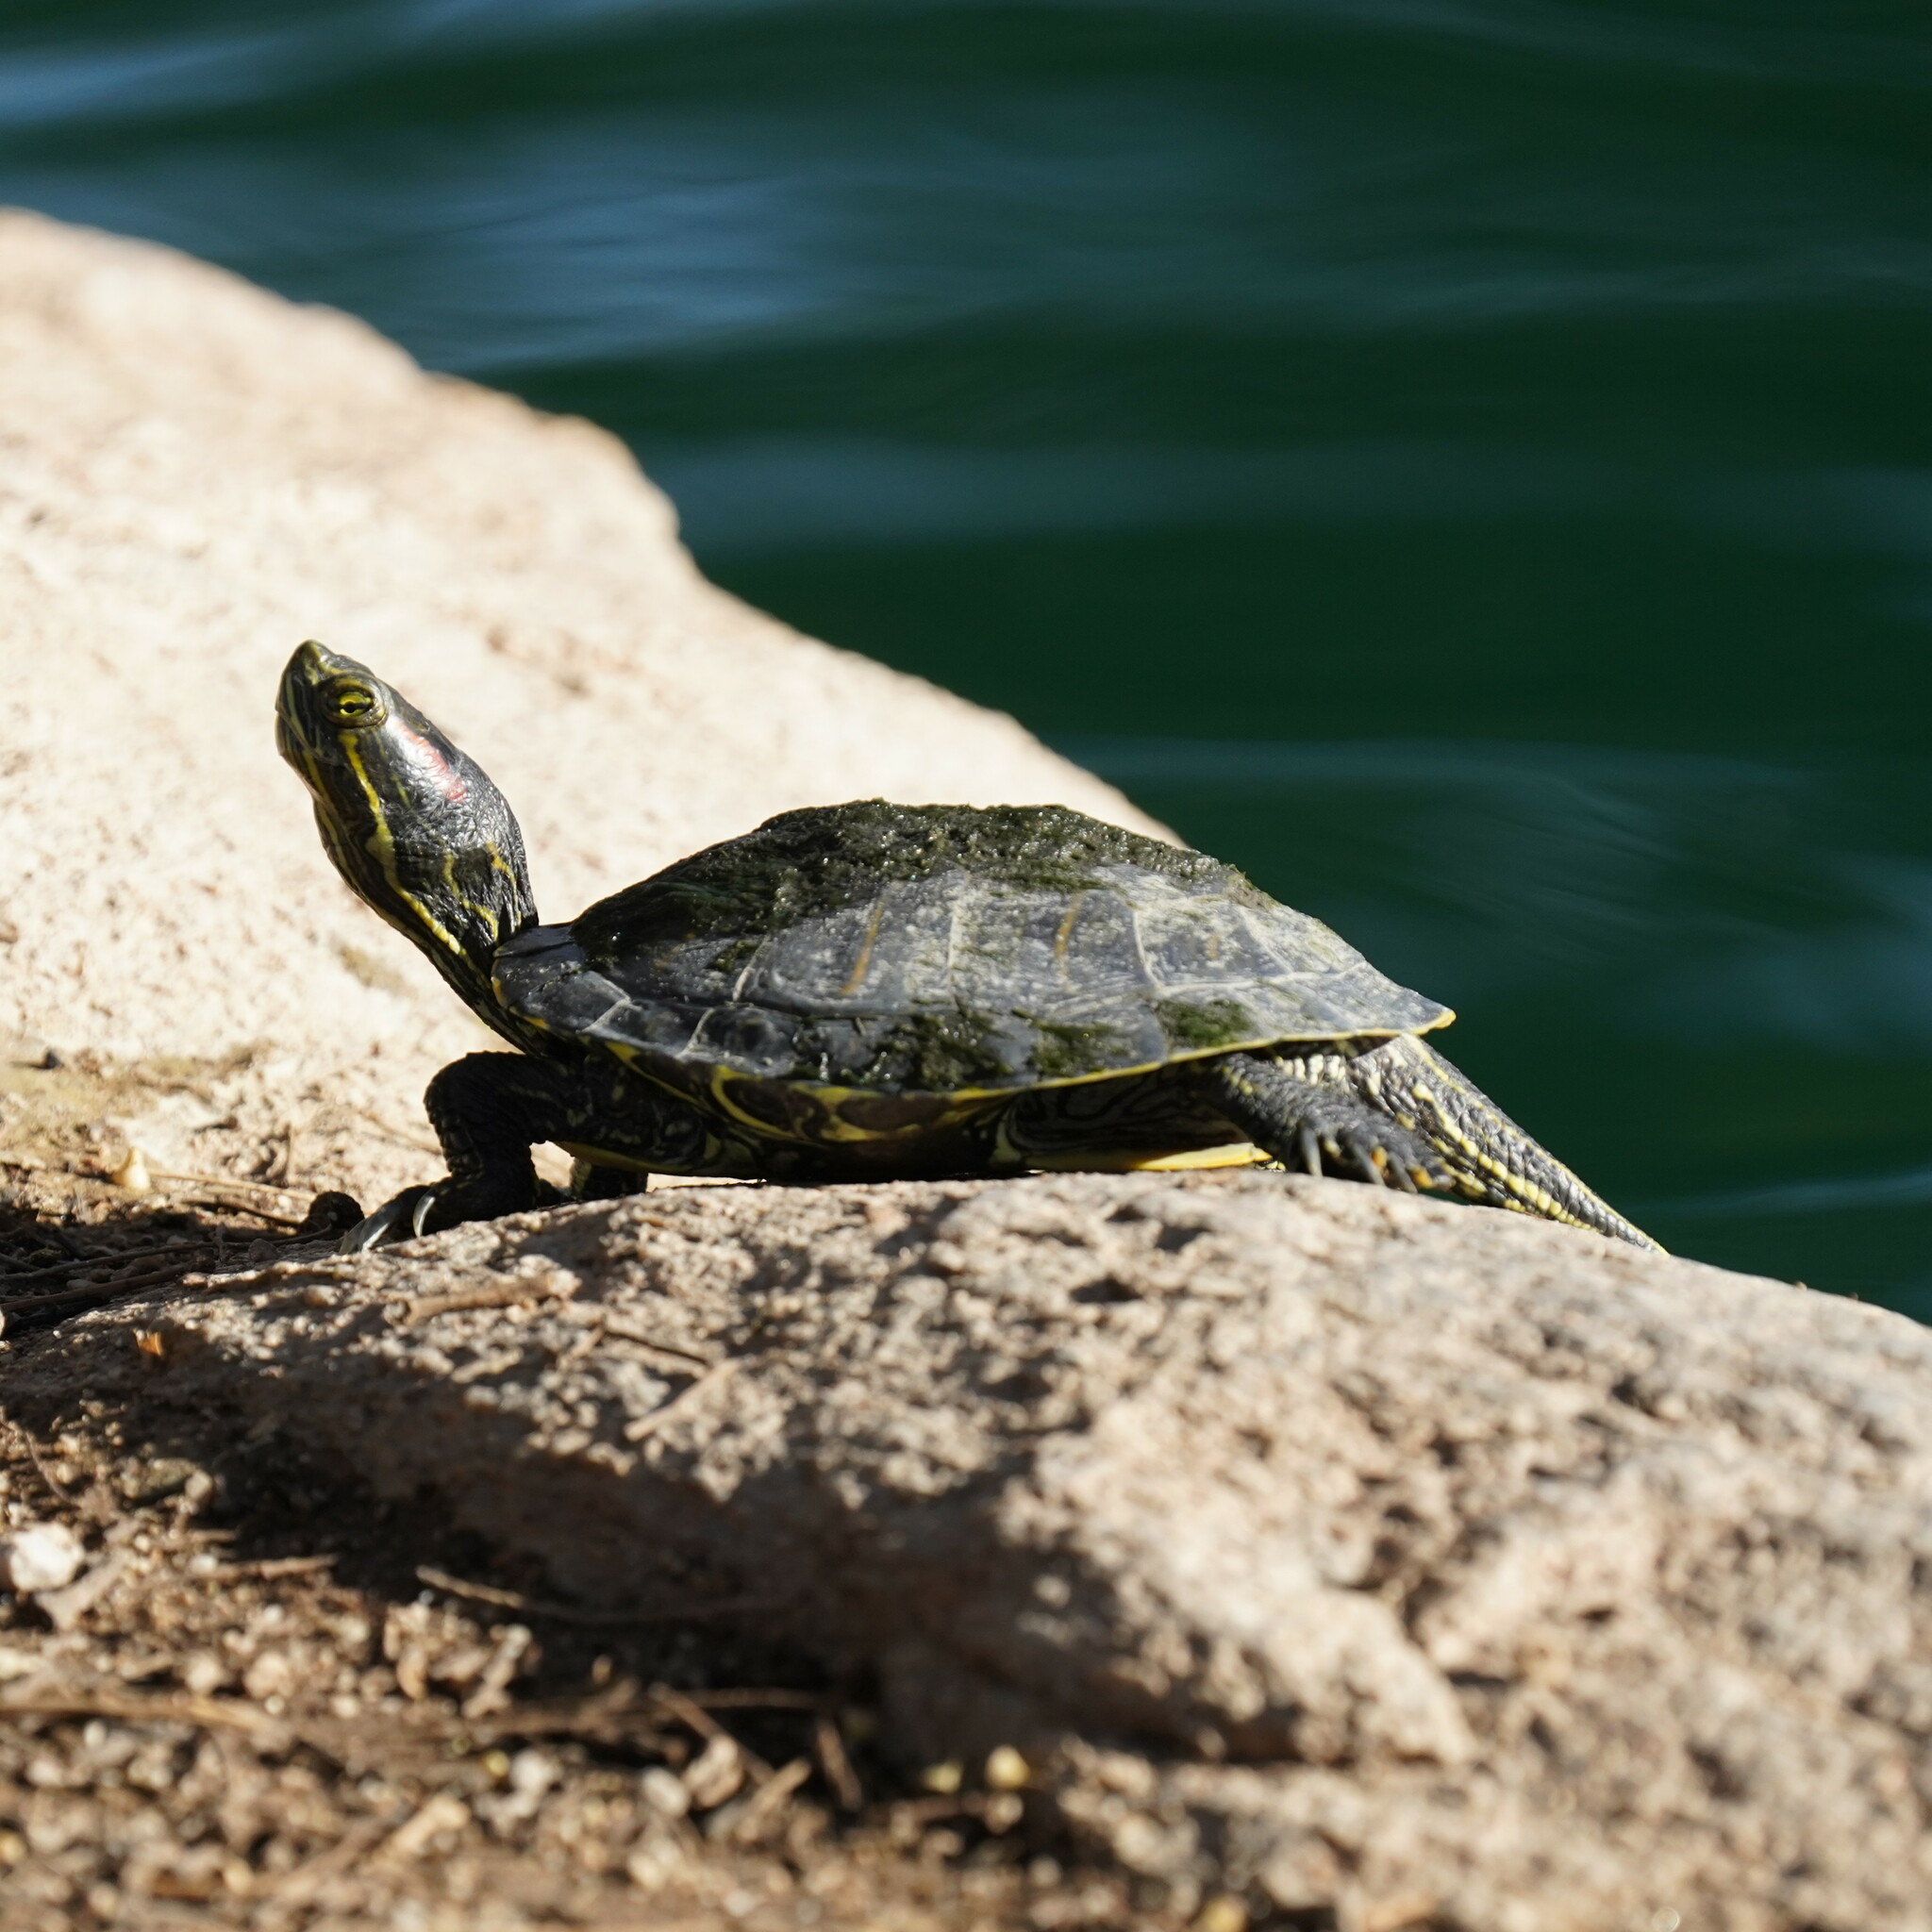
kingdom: Animalia
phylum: Chordata
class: Testudines
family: Emydidae
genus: Trachemys
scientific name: Trachemys scripta
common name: Slider
